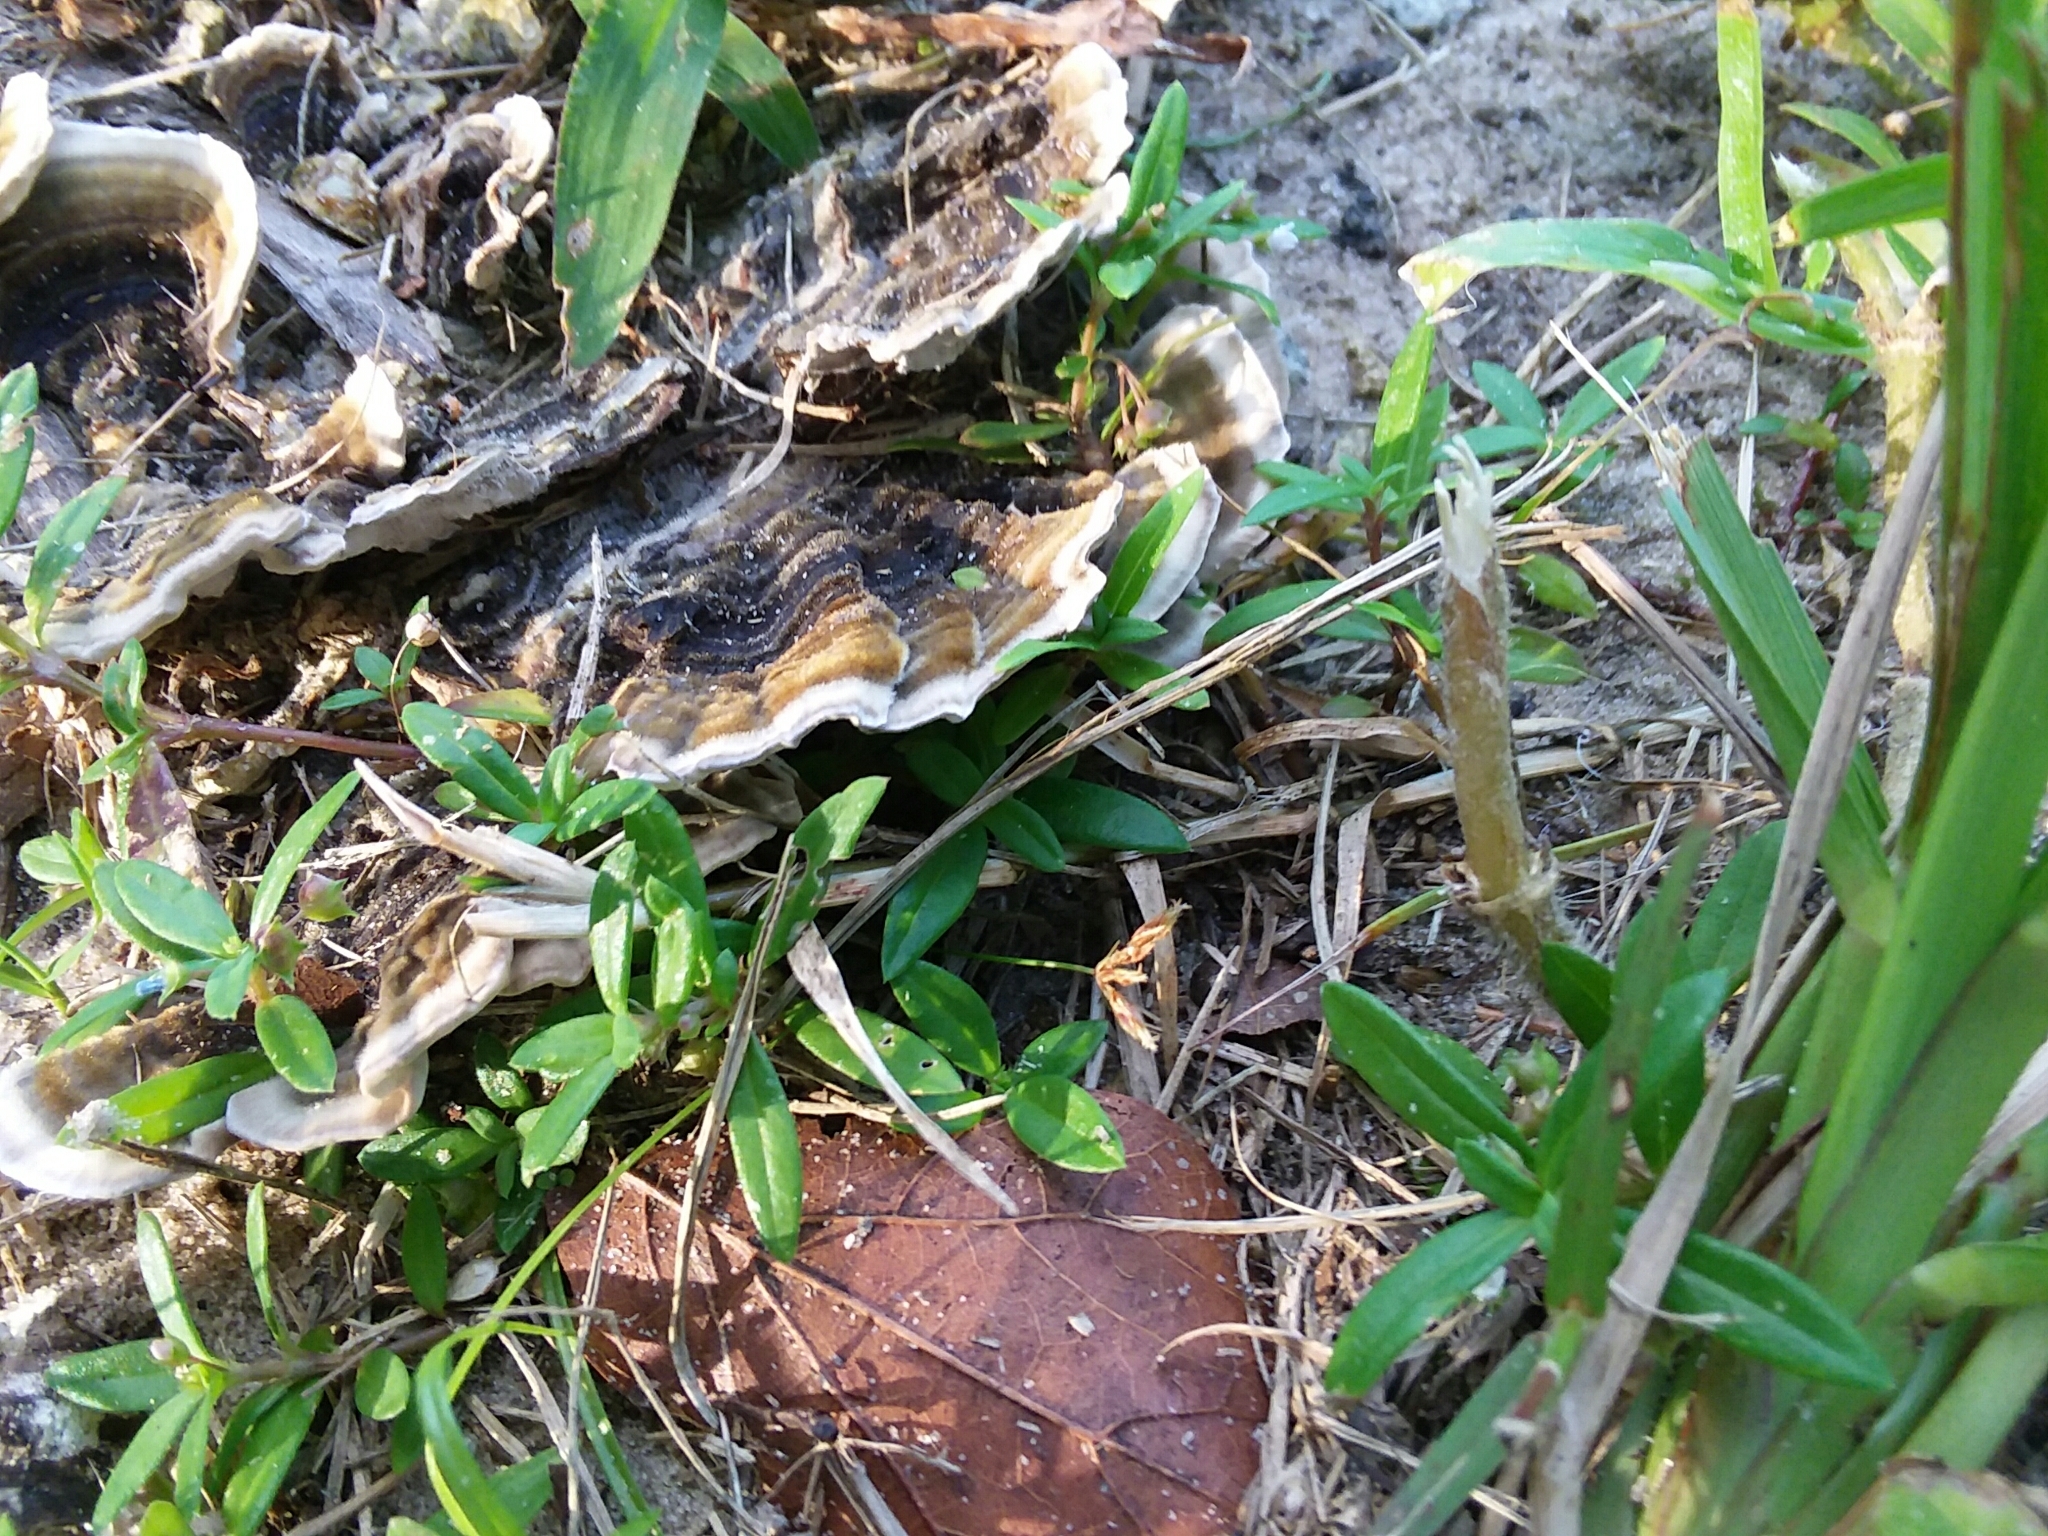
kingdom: Fungi
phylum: Basidiomycota
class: Agaricomycetes
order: Polyporales
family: Polyporaceae
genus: Trametes
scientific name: Trametes versicolor
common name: Turkeytail
